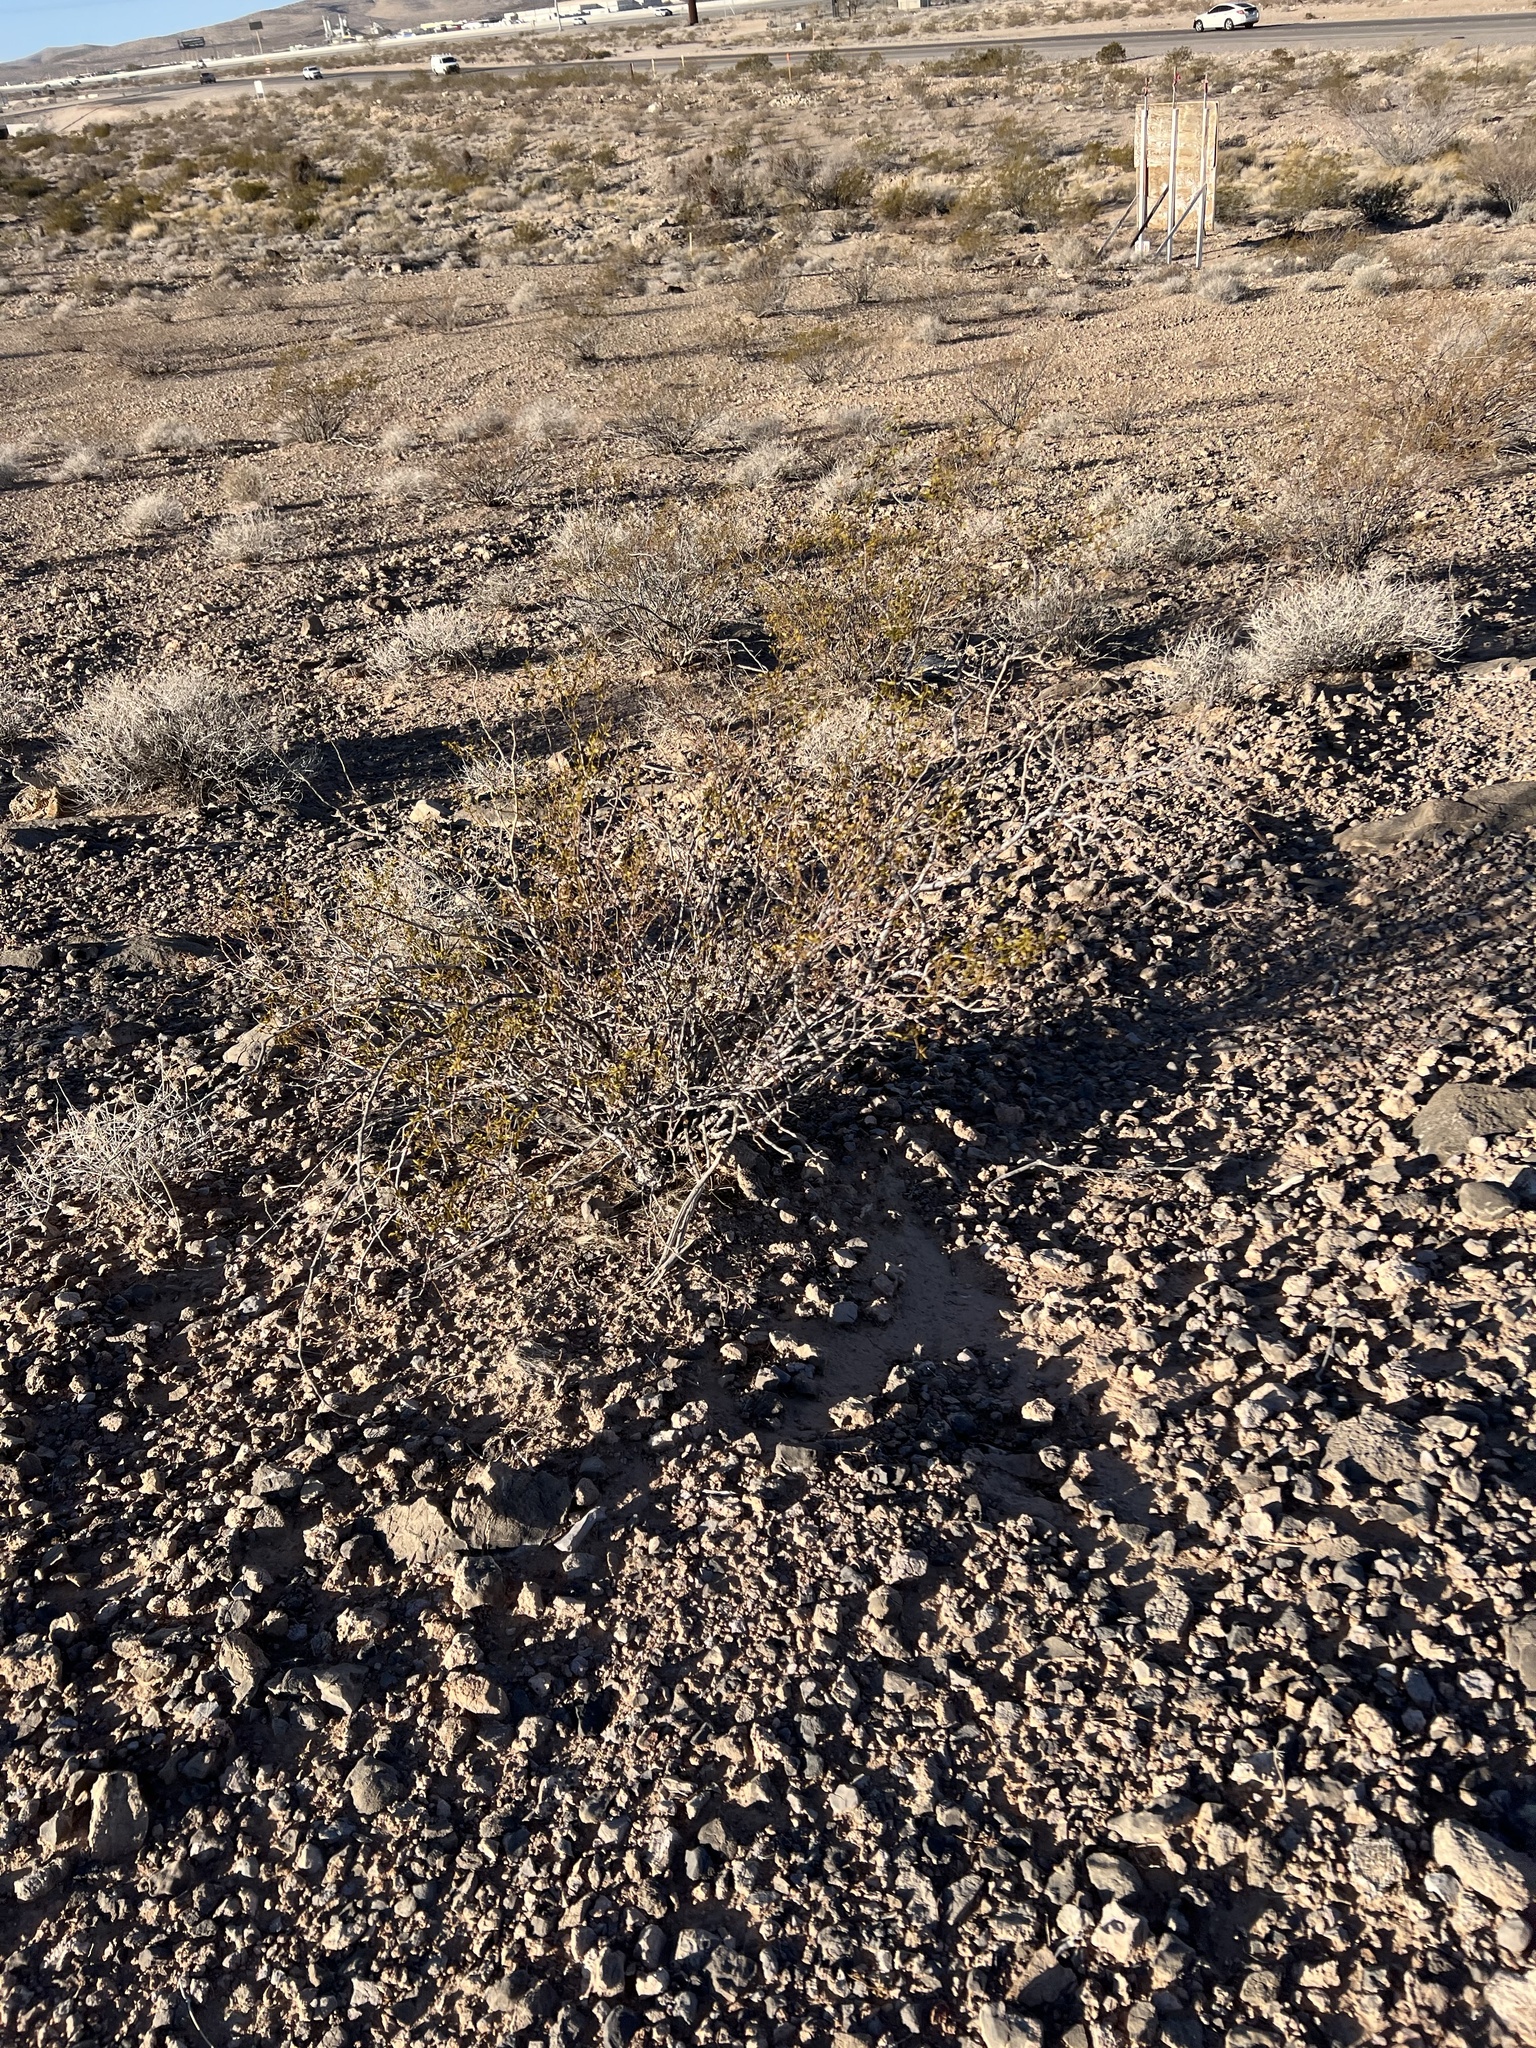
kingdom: Plantae
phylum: Tracheophyta
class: Magnoliopsida
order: Zygophyllales
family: Zygophyllaceae
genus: Larrea
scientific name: Larrea tridentata
